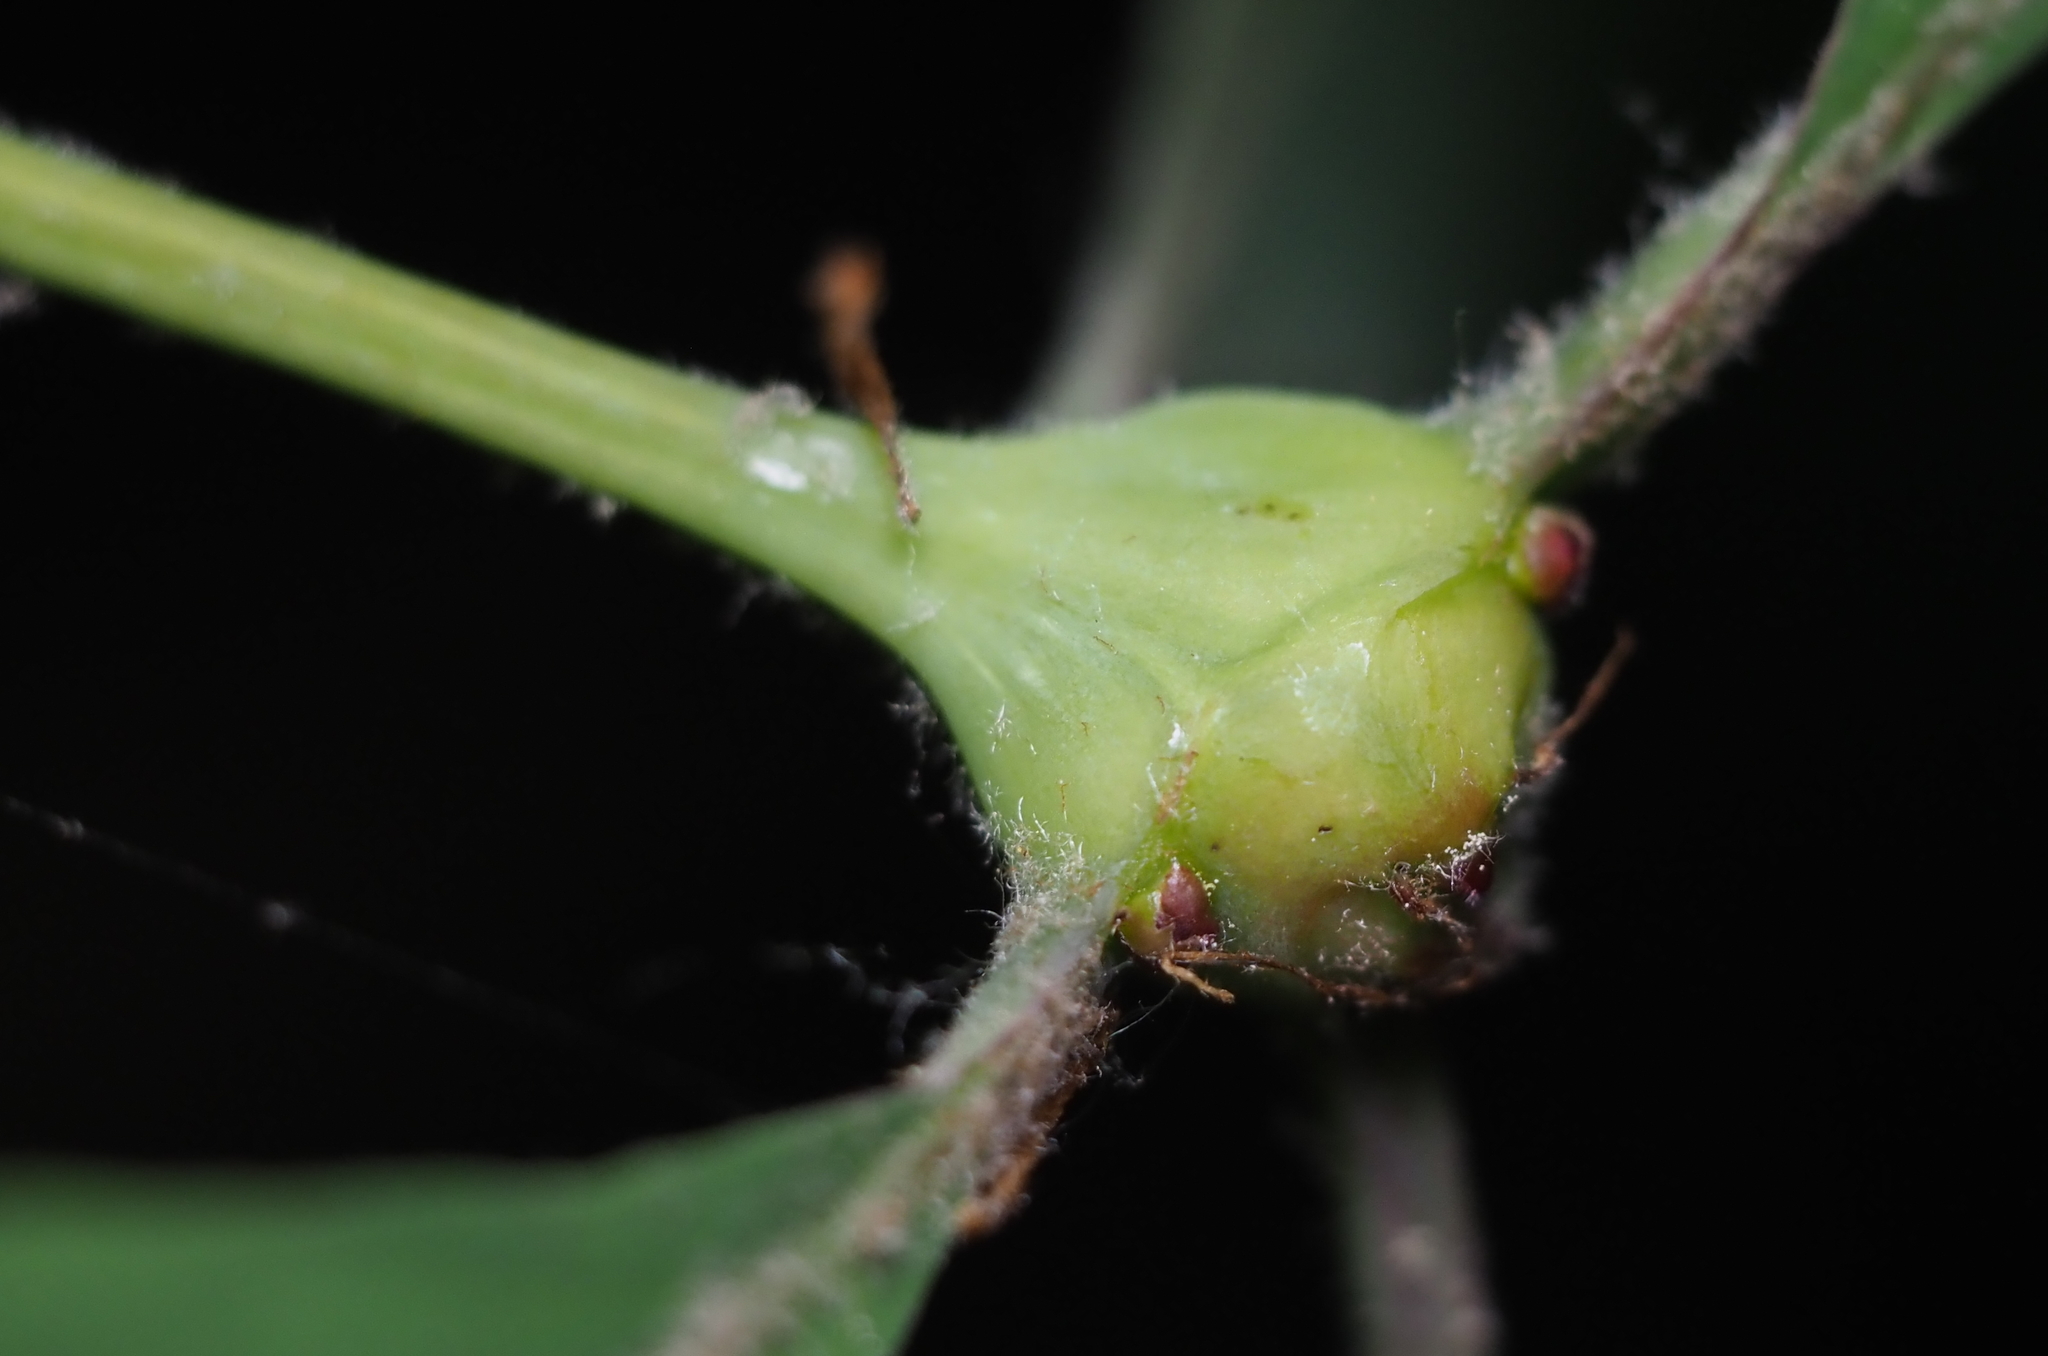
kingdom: Animalia
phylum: Arthropoda
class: Insecta
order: Hymenoptera
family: Cynipidae
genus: Callirhytis
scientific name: Callirhytis clavula
